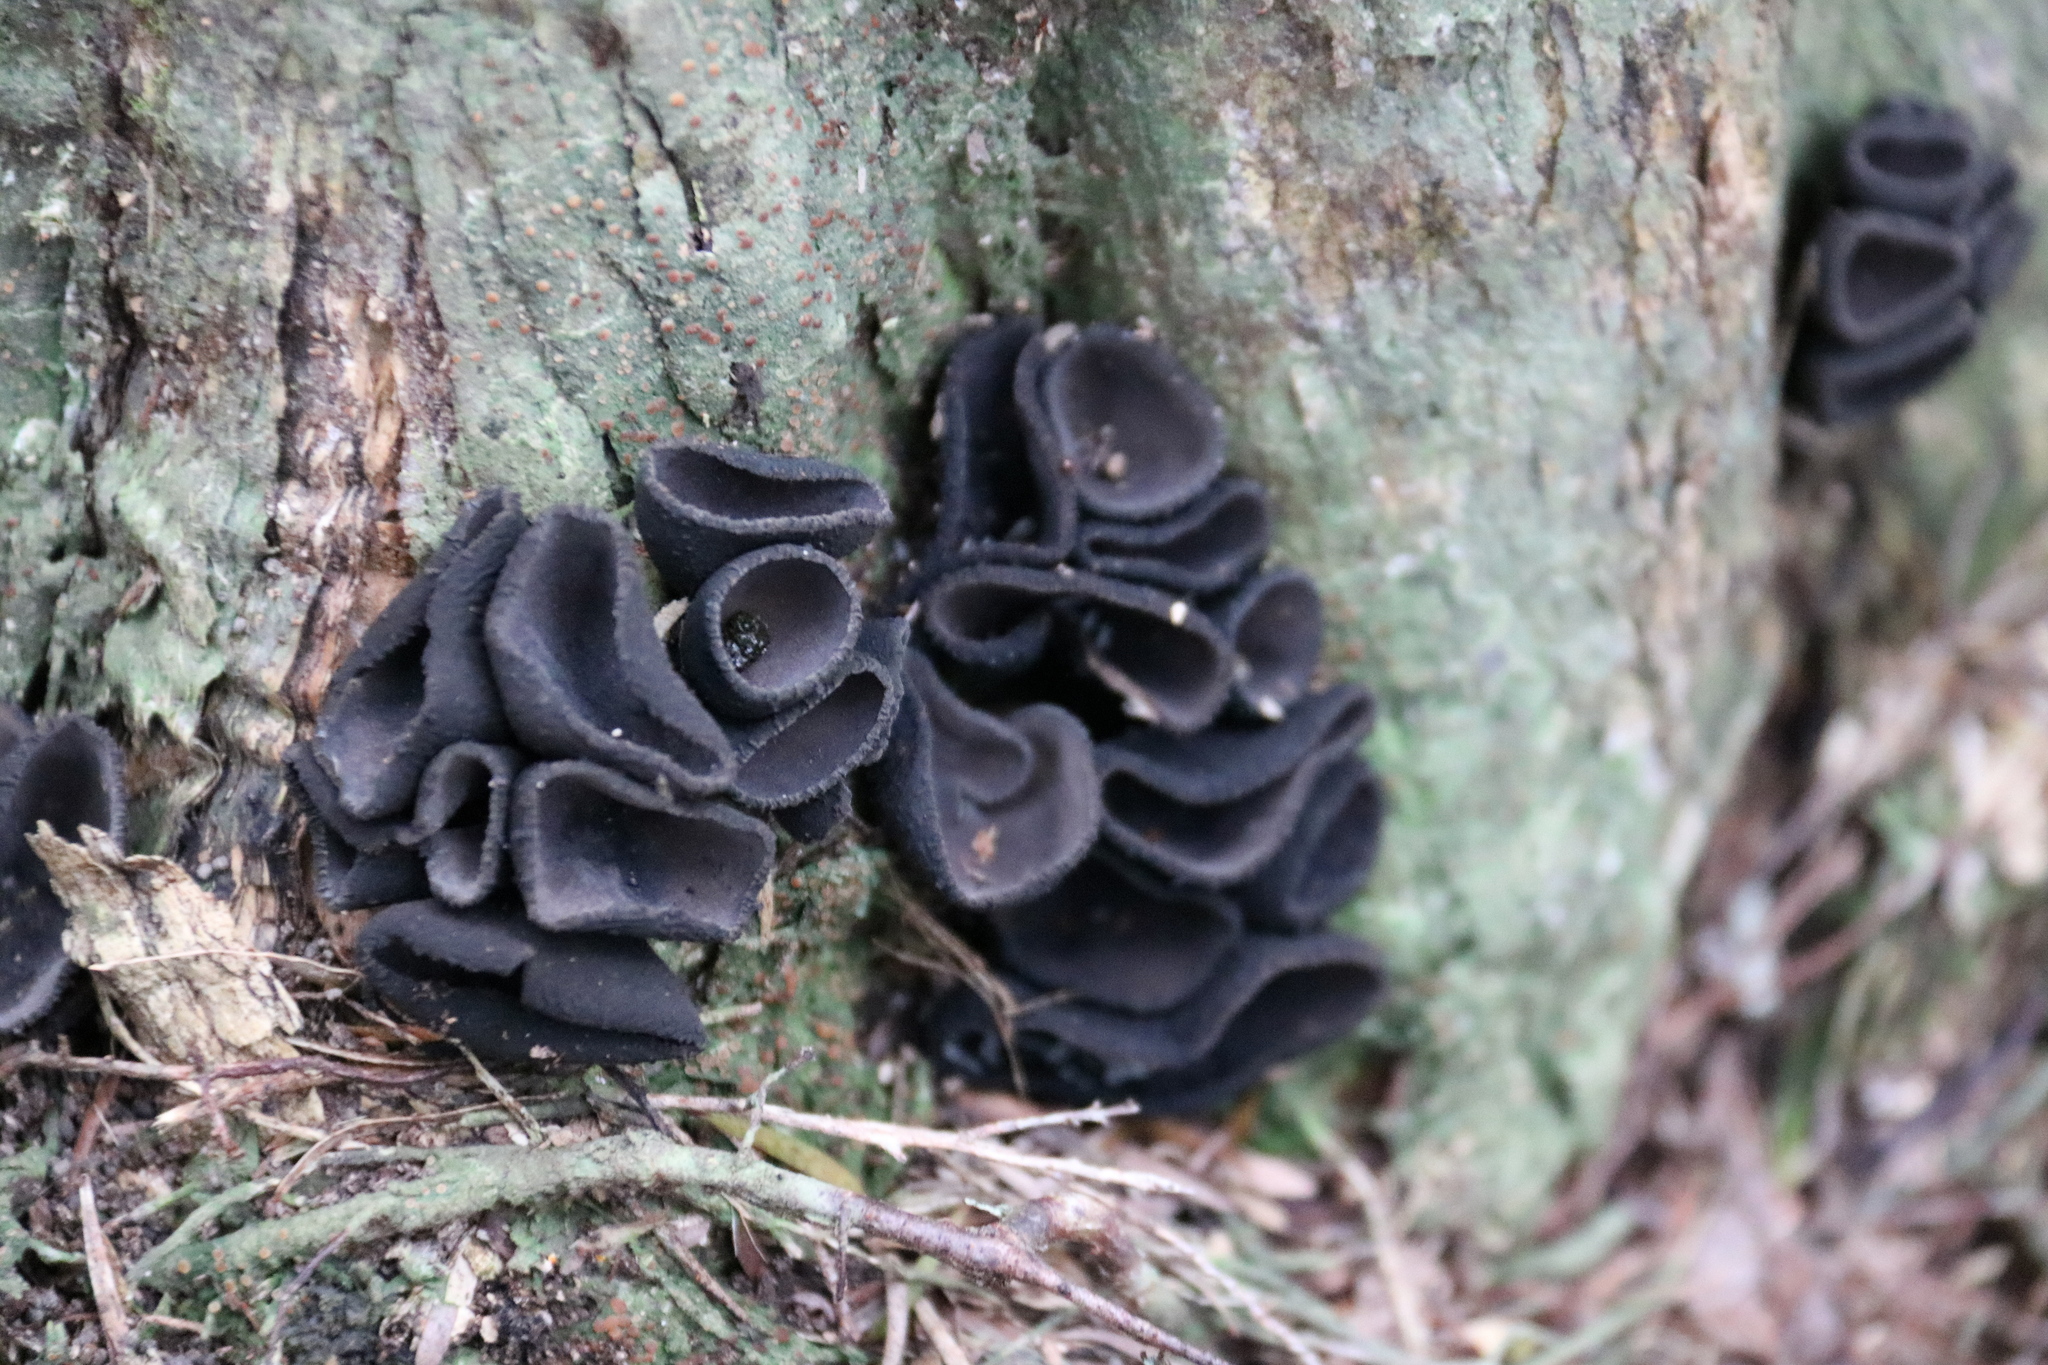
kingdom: Fungi
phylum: Ascomycota
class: Pezizomycetes
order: Pezizales
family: Sarcosomataceae
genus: Plectania
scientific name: Plectania rhytidia
